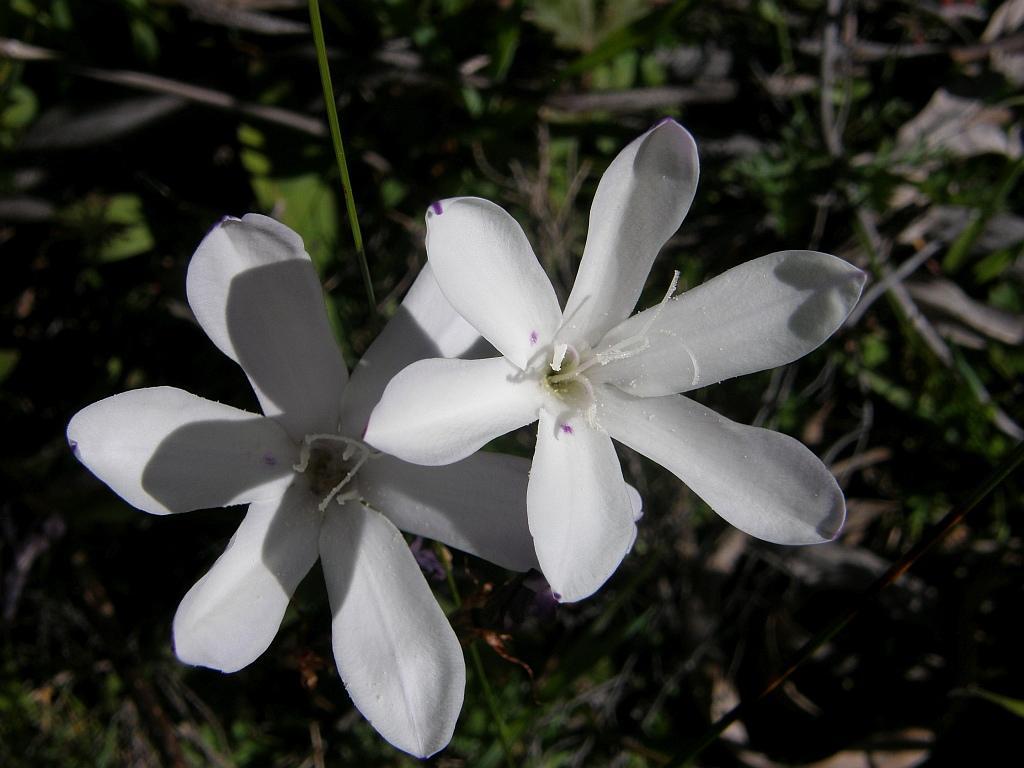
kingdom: Plantae
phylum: Tracheophyta
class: Liliopsida
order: Asparagales
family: Iridaceae
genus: Sparaxis
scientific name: Sparaxis grandiflora
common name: Plain harlequin-flower
